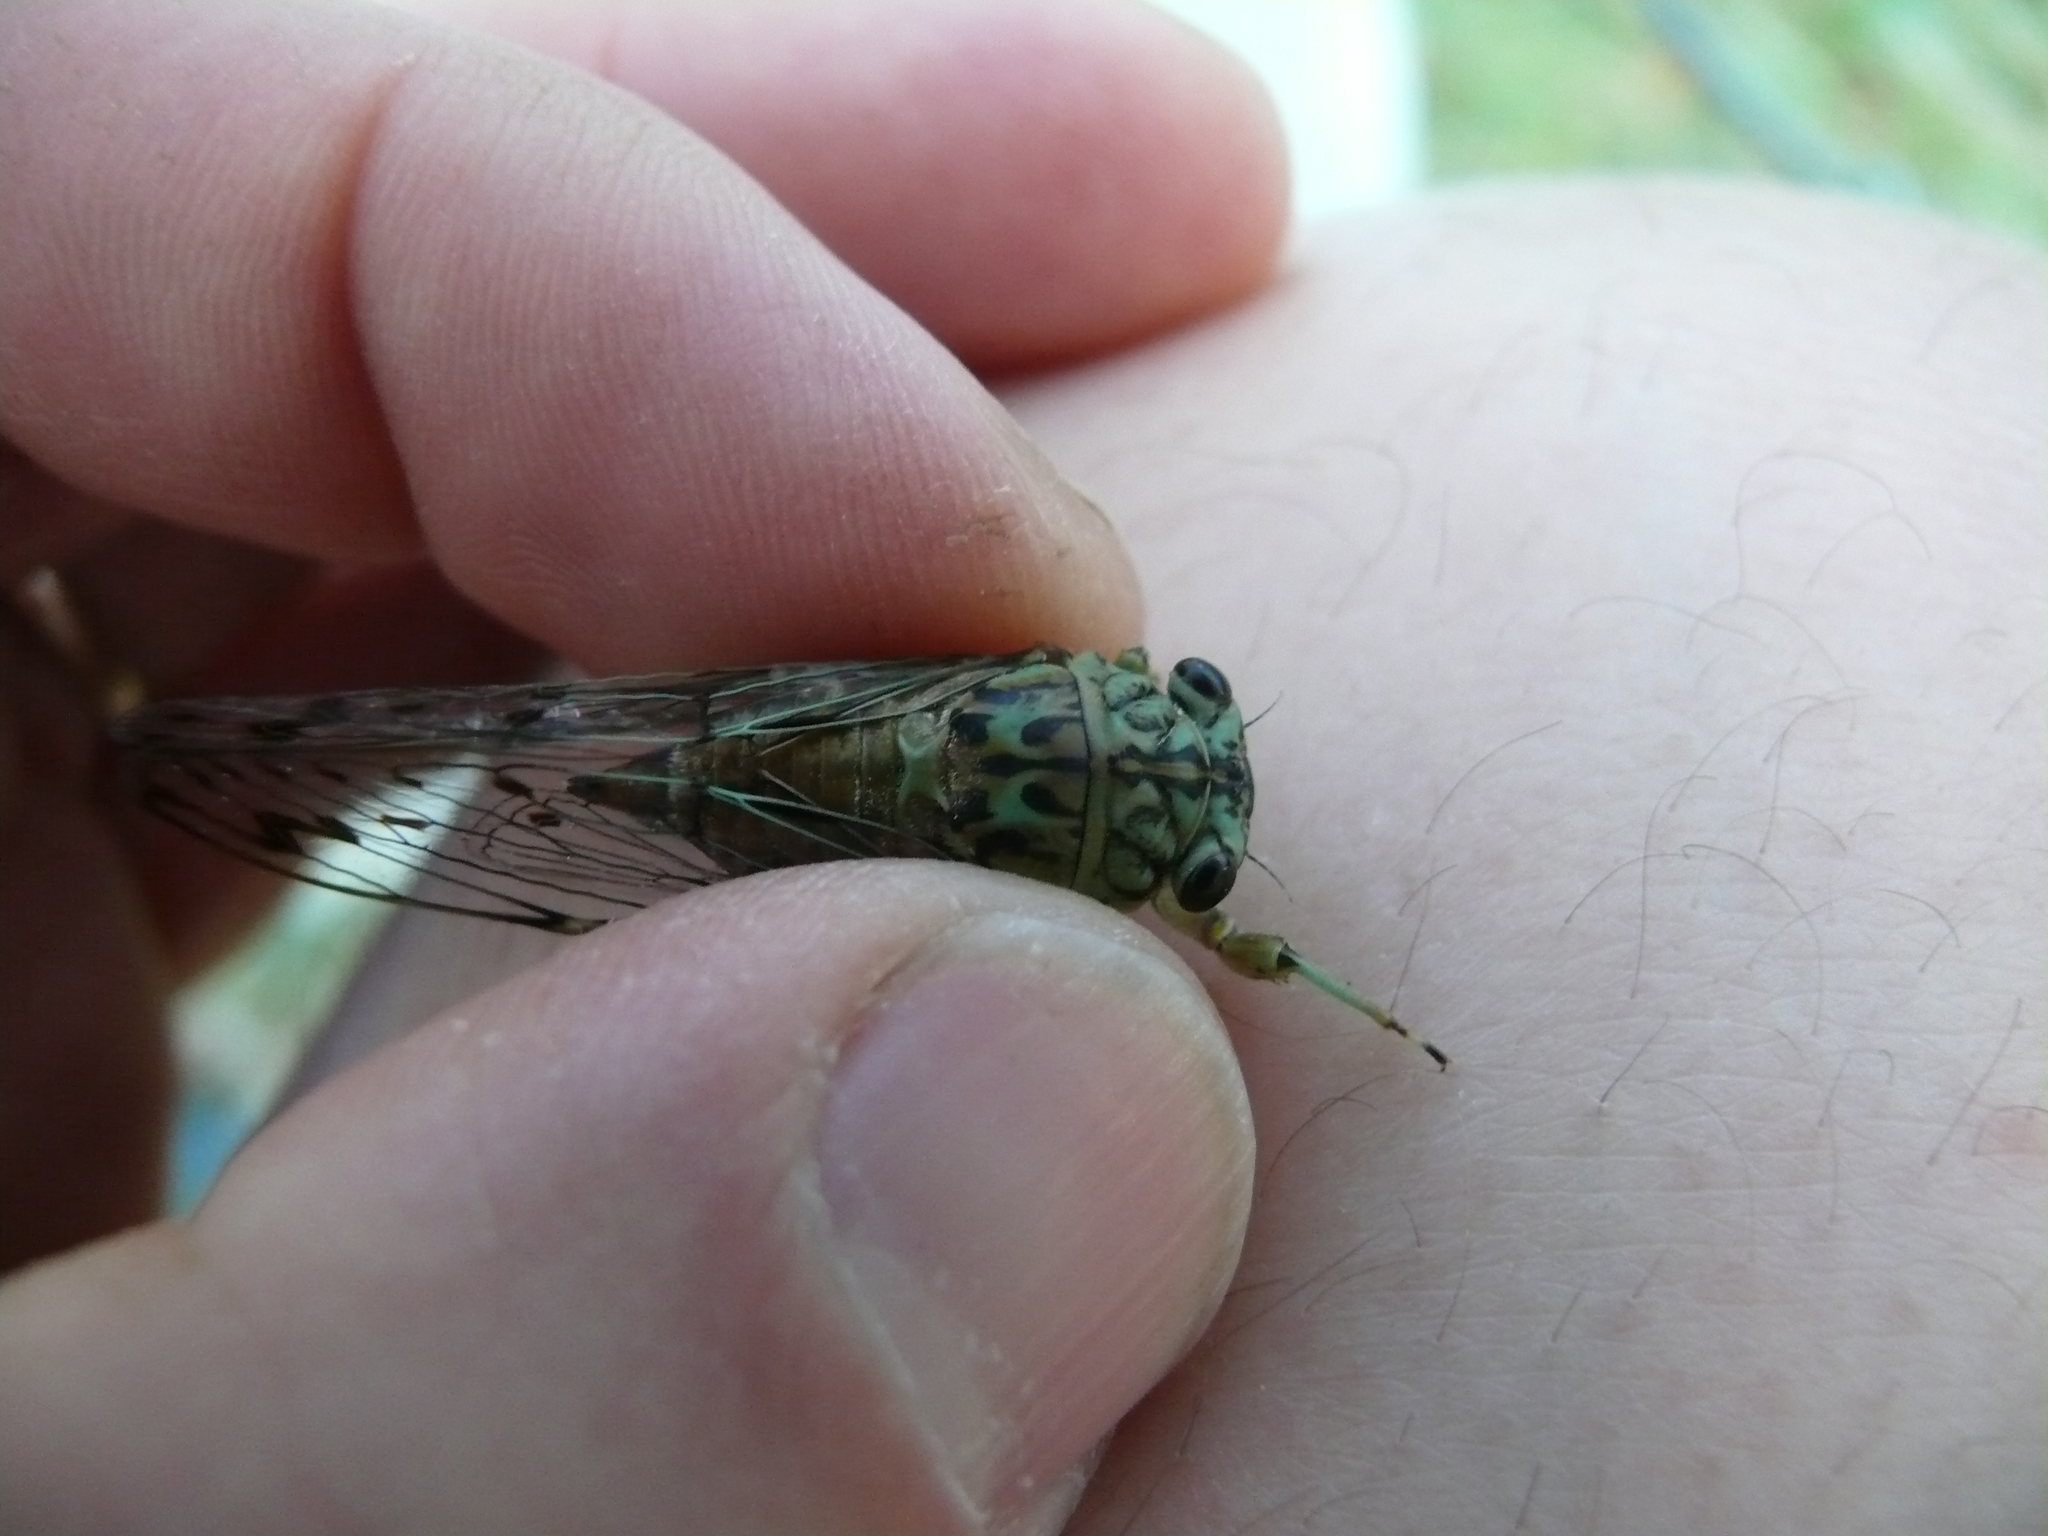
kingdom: Animalia
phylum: Arthropoda
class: Insecta
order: Hemiptera
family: Cicadidae
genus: Neocicada
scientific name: Neocicada hieroglyphica
